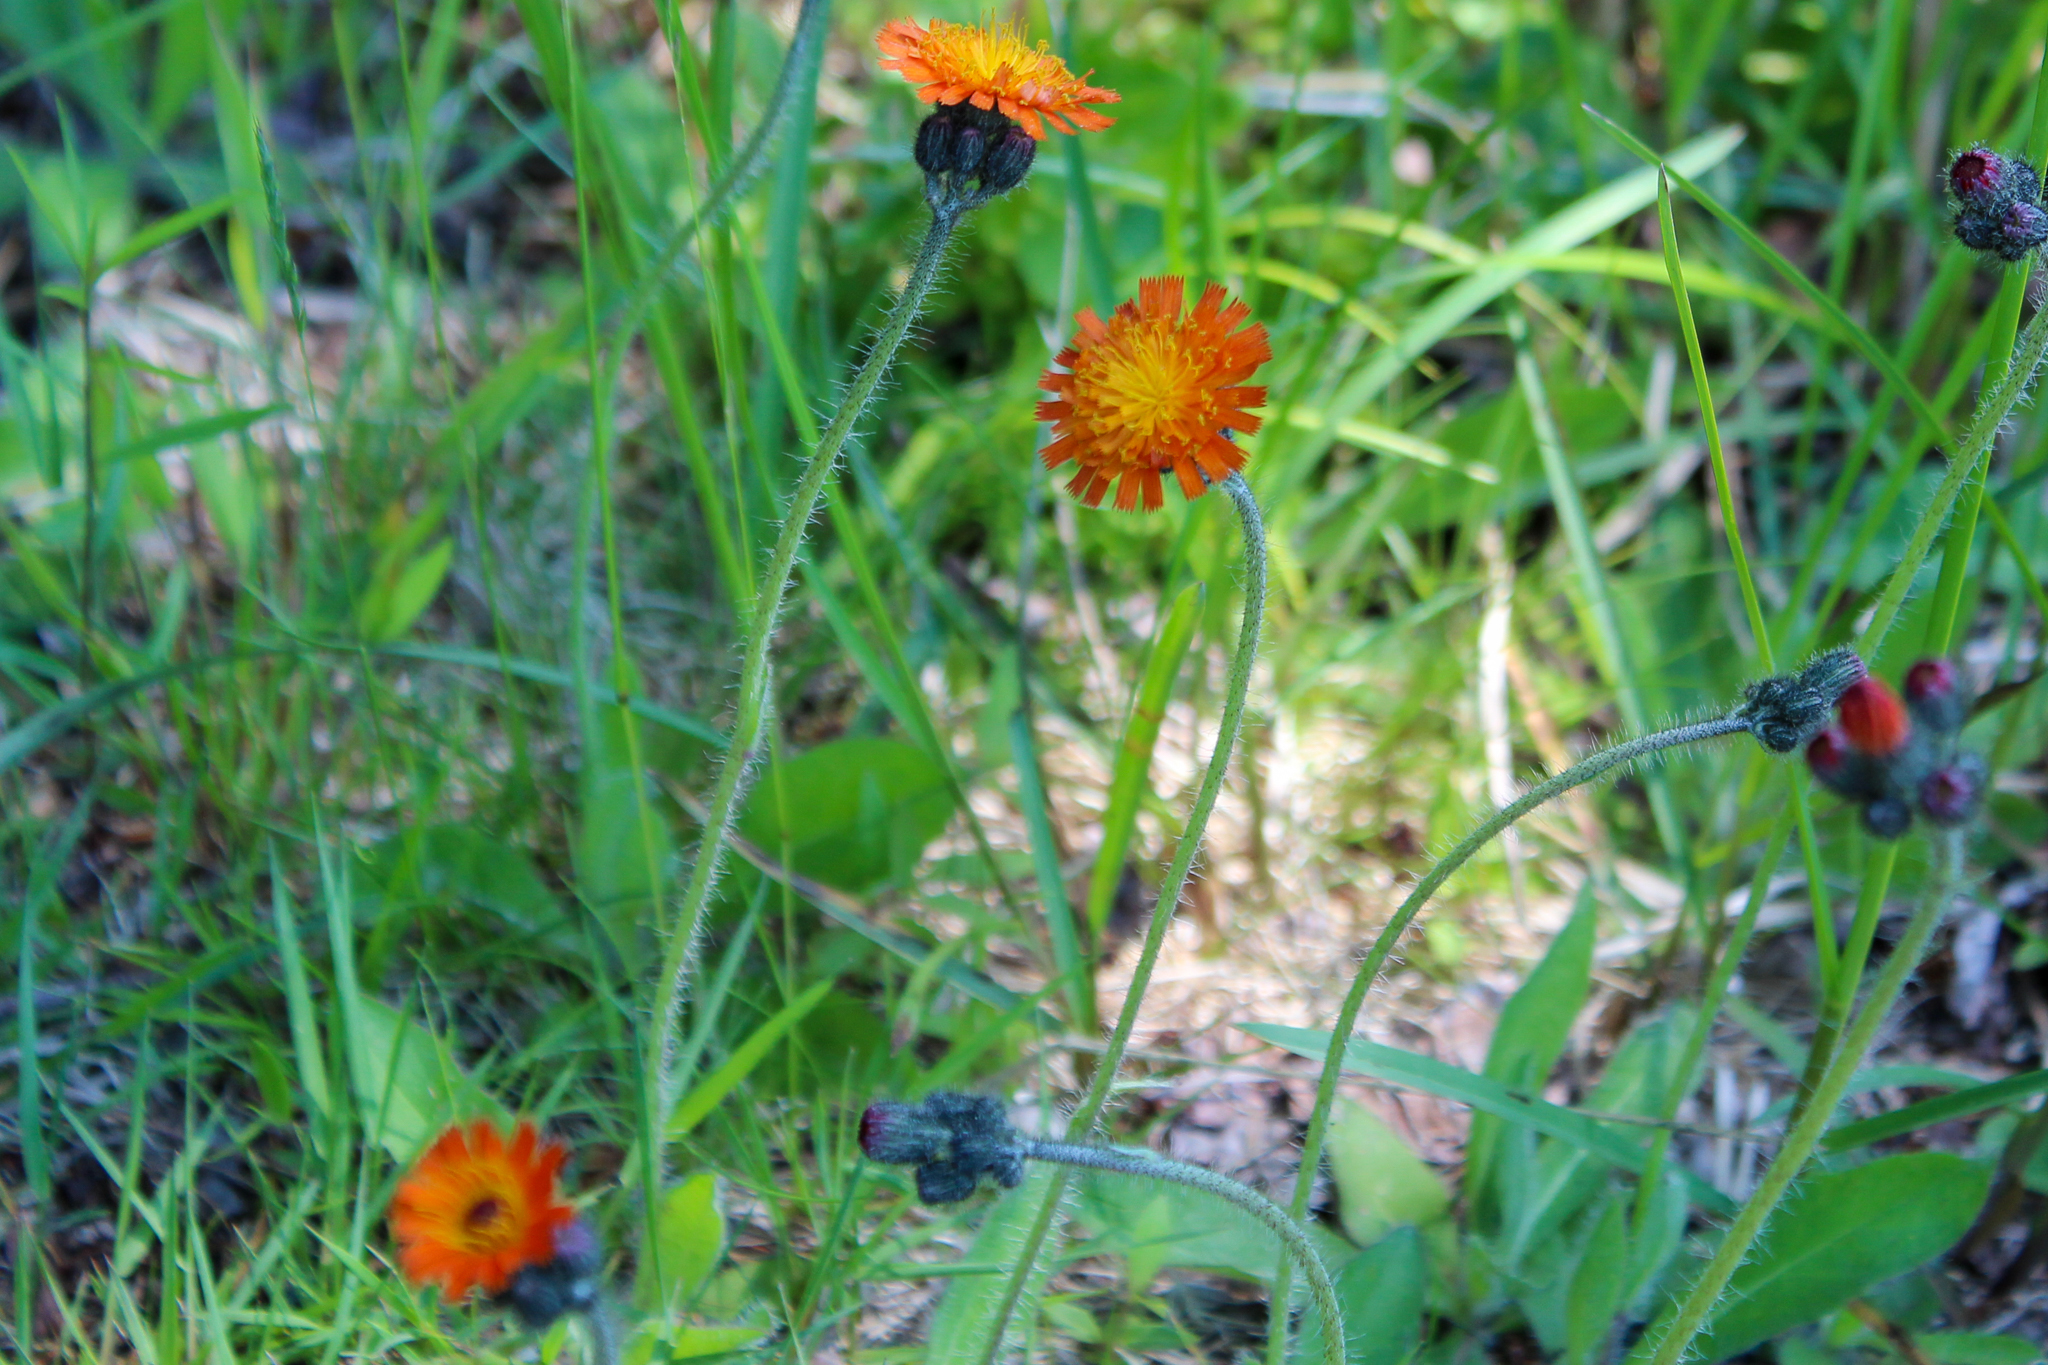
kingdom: Plantae
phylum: Tracheophyta
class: Magnoliopsida
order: Asterales
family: Asteraceae
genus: Pilosella
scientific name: Pilosella aurantiaca
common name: Fox-and-cubs
